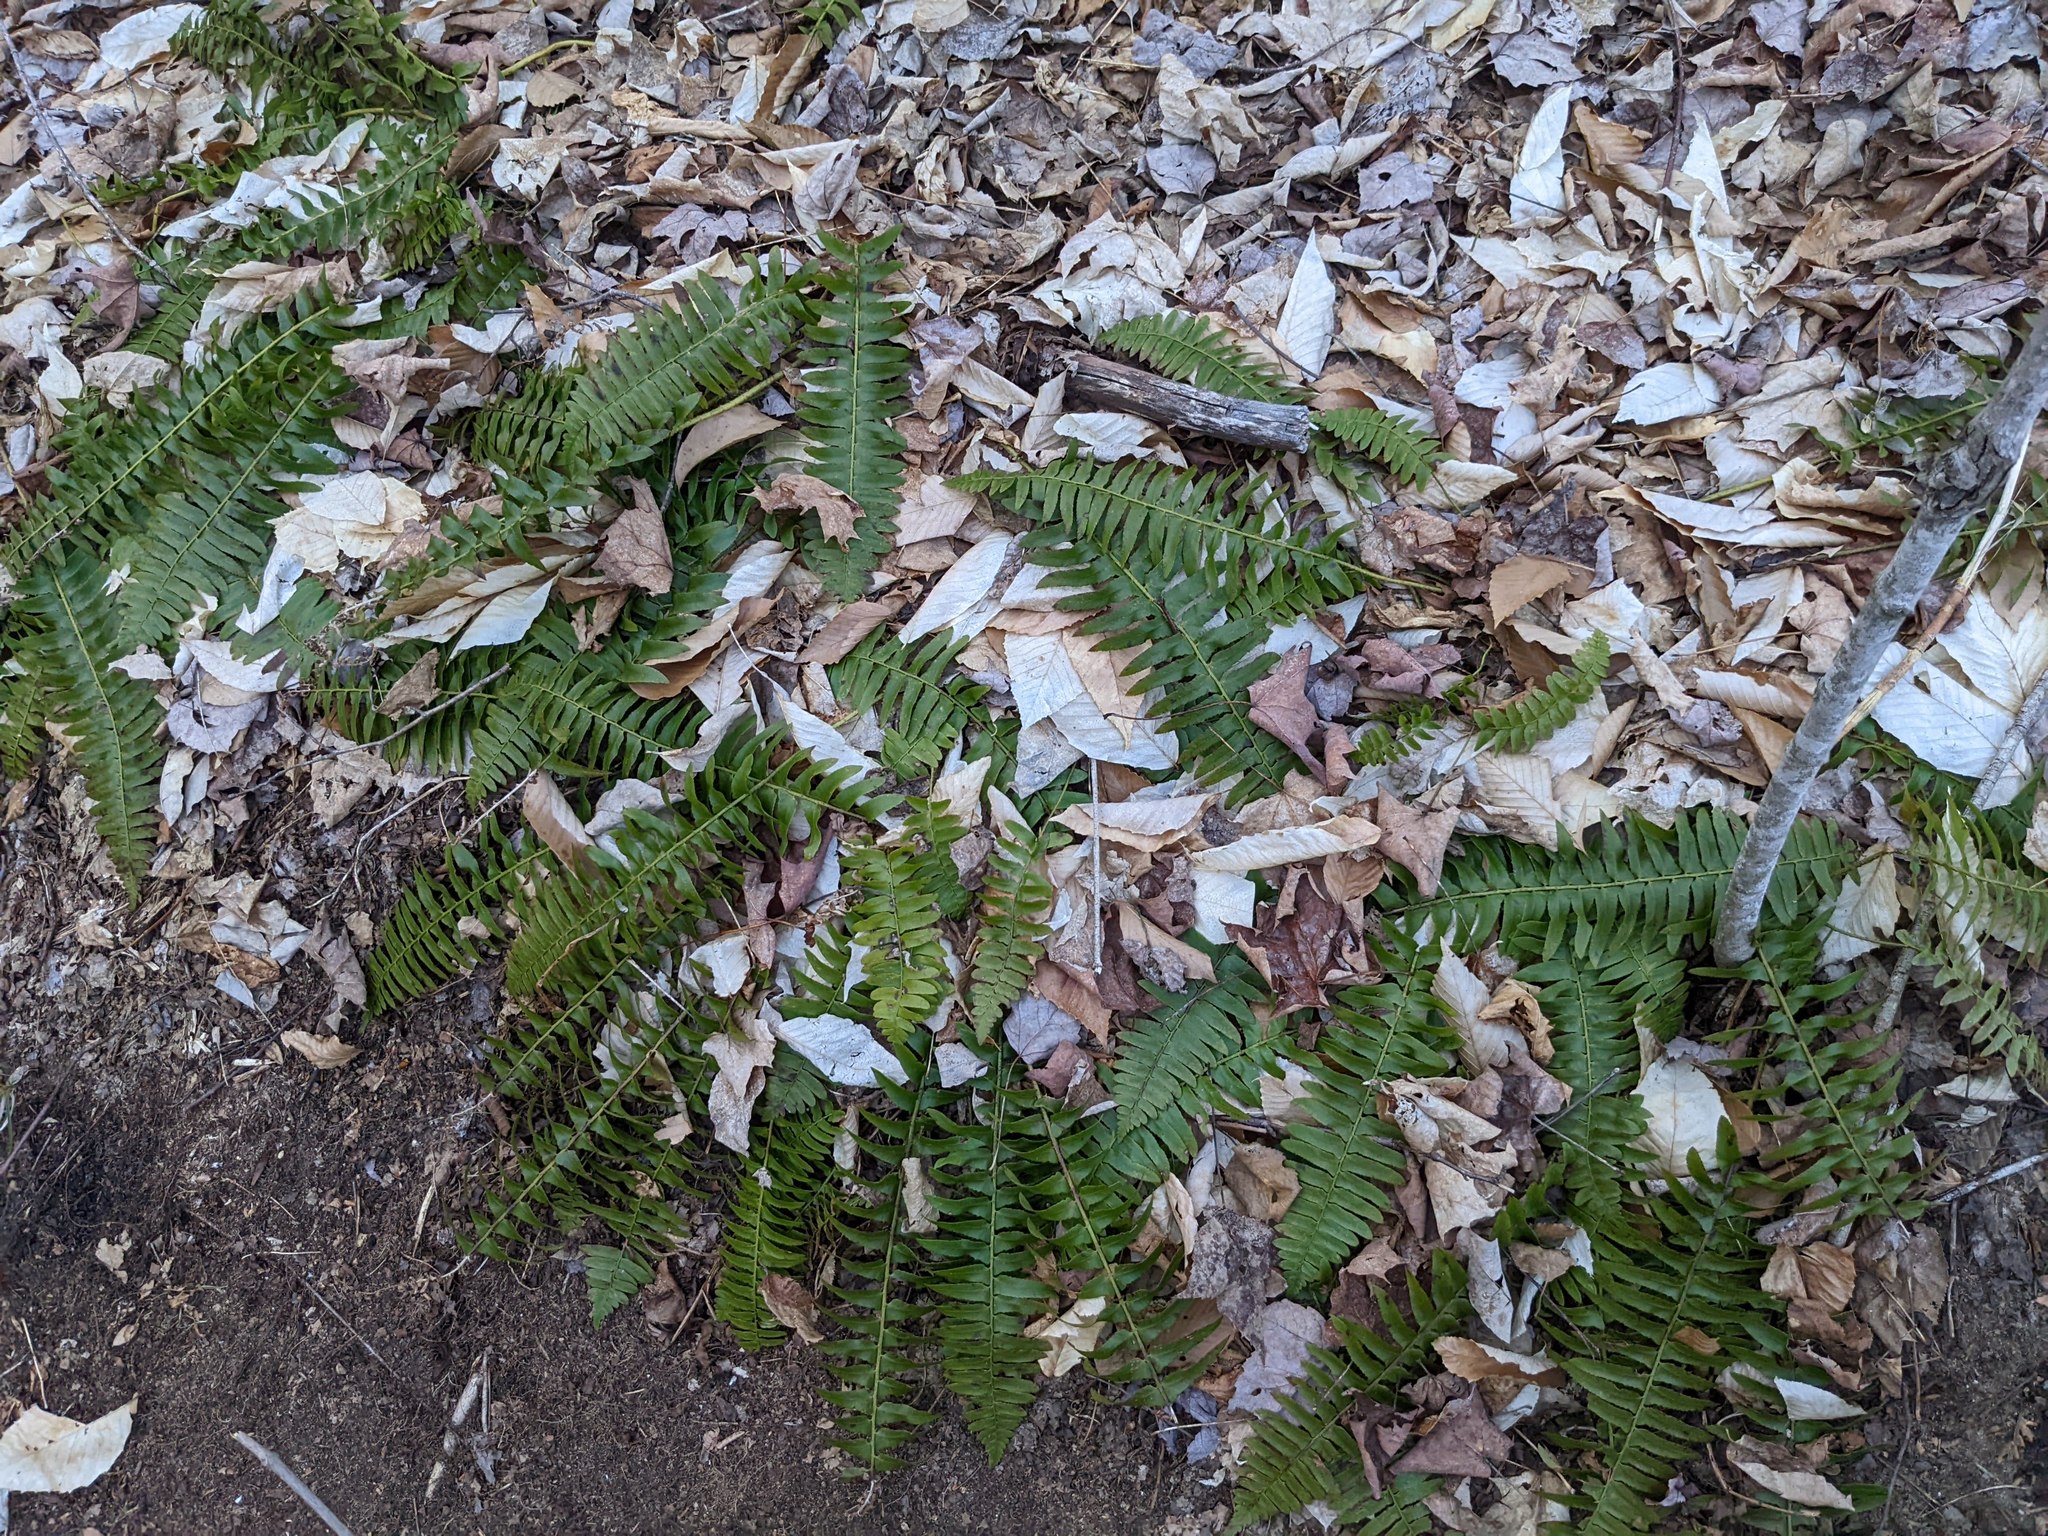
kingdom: Plantae
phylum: Tracheophyta
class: Polypodiopsida
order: Polypodiales
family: Dryopteridaceae
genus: Polystichum
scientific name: Polystichum acrostichoides
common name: Christmas fern
